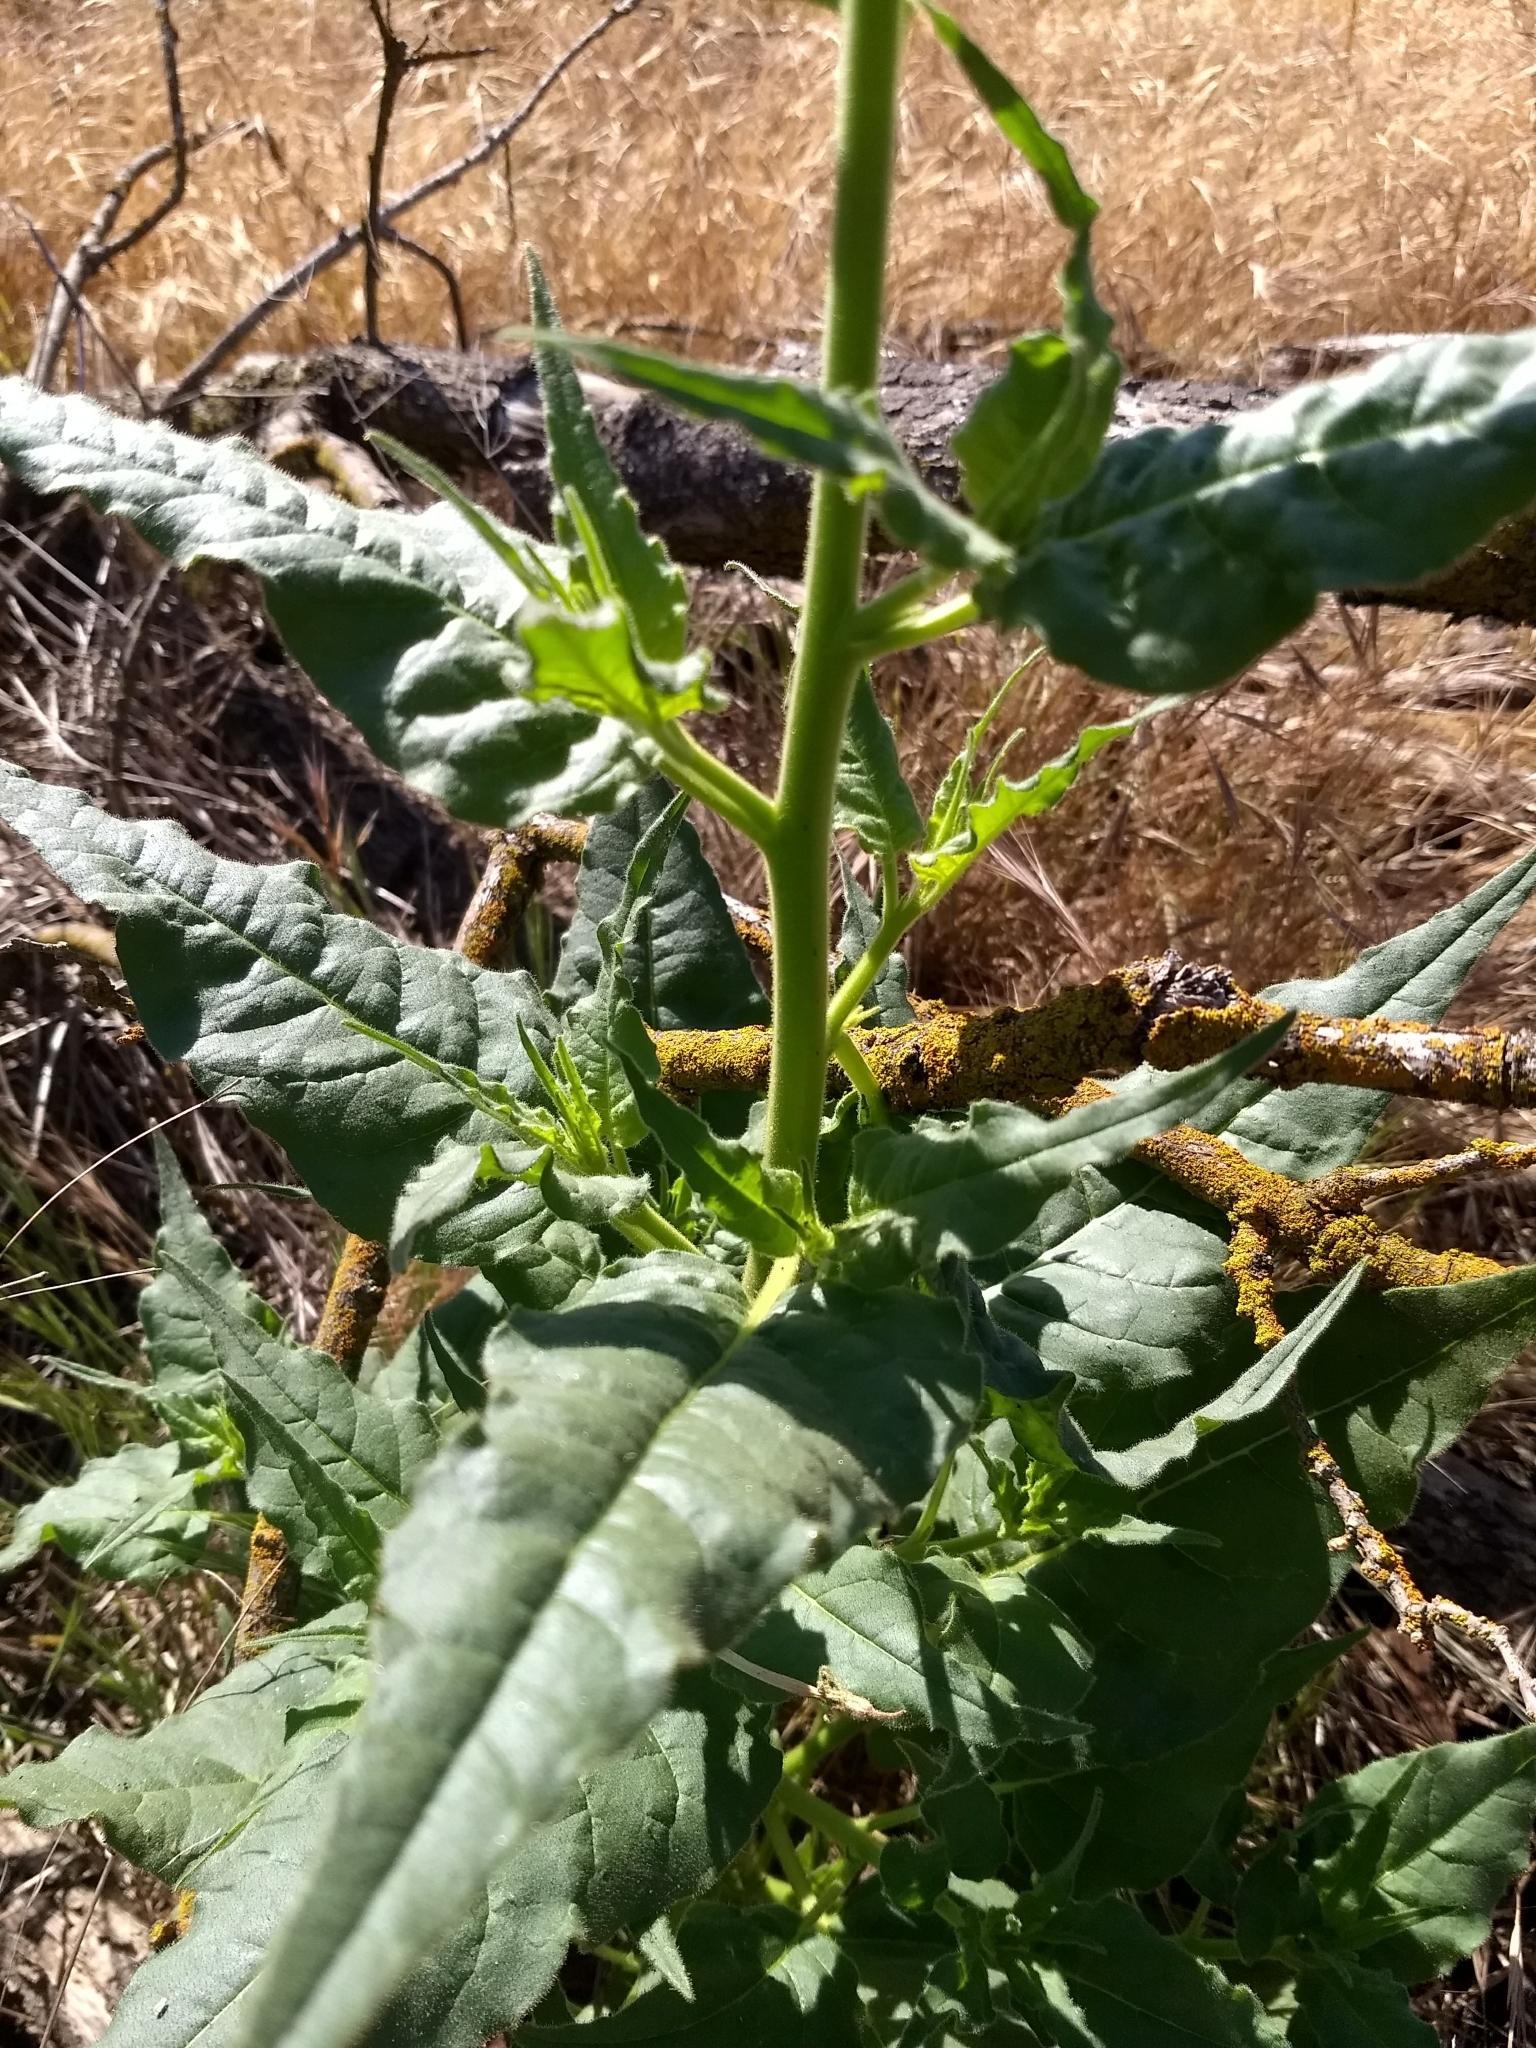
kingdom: Plantae
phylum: Tracheophyta
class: Magnoliopsida
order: Solanales
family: Solanaceae
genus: Nicotiana
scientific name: Nicotiana acuminata
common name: Manyflower tobacco
